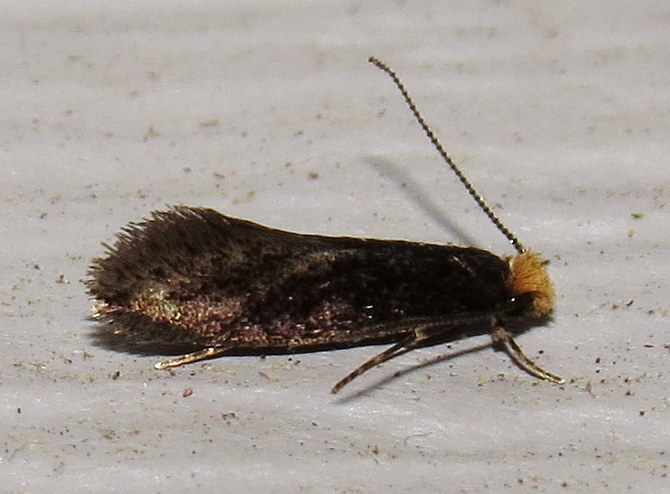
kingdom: Animalia
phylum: Arthropoda
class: Insecta
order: Lepidoptera
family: Meessiidae
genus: Doleromorpha
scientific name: Doleromorpha porphyria
